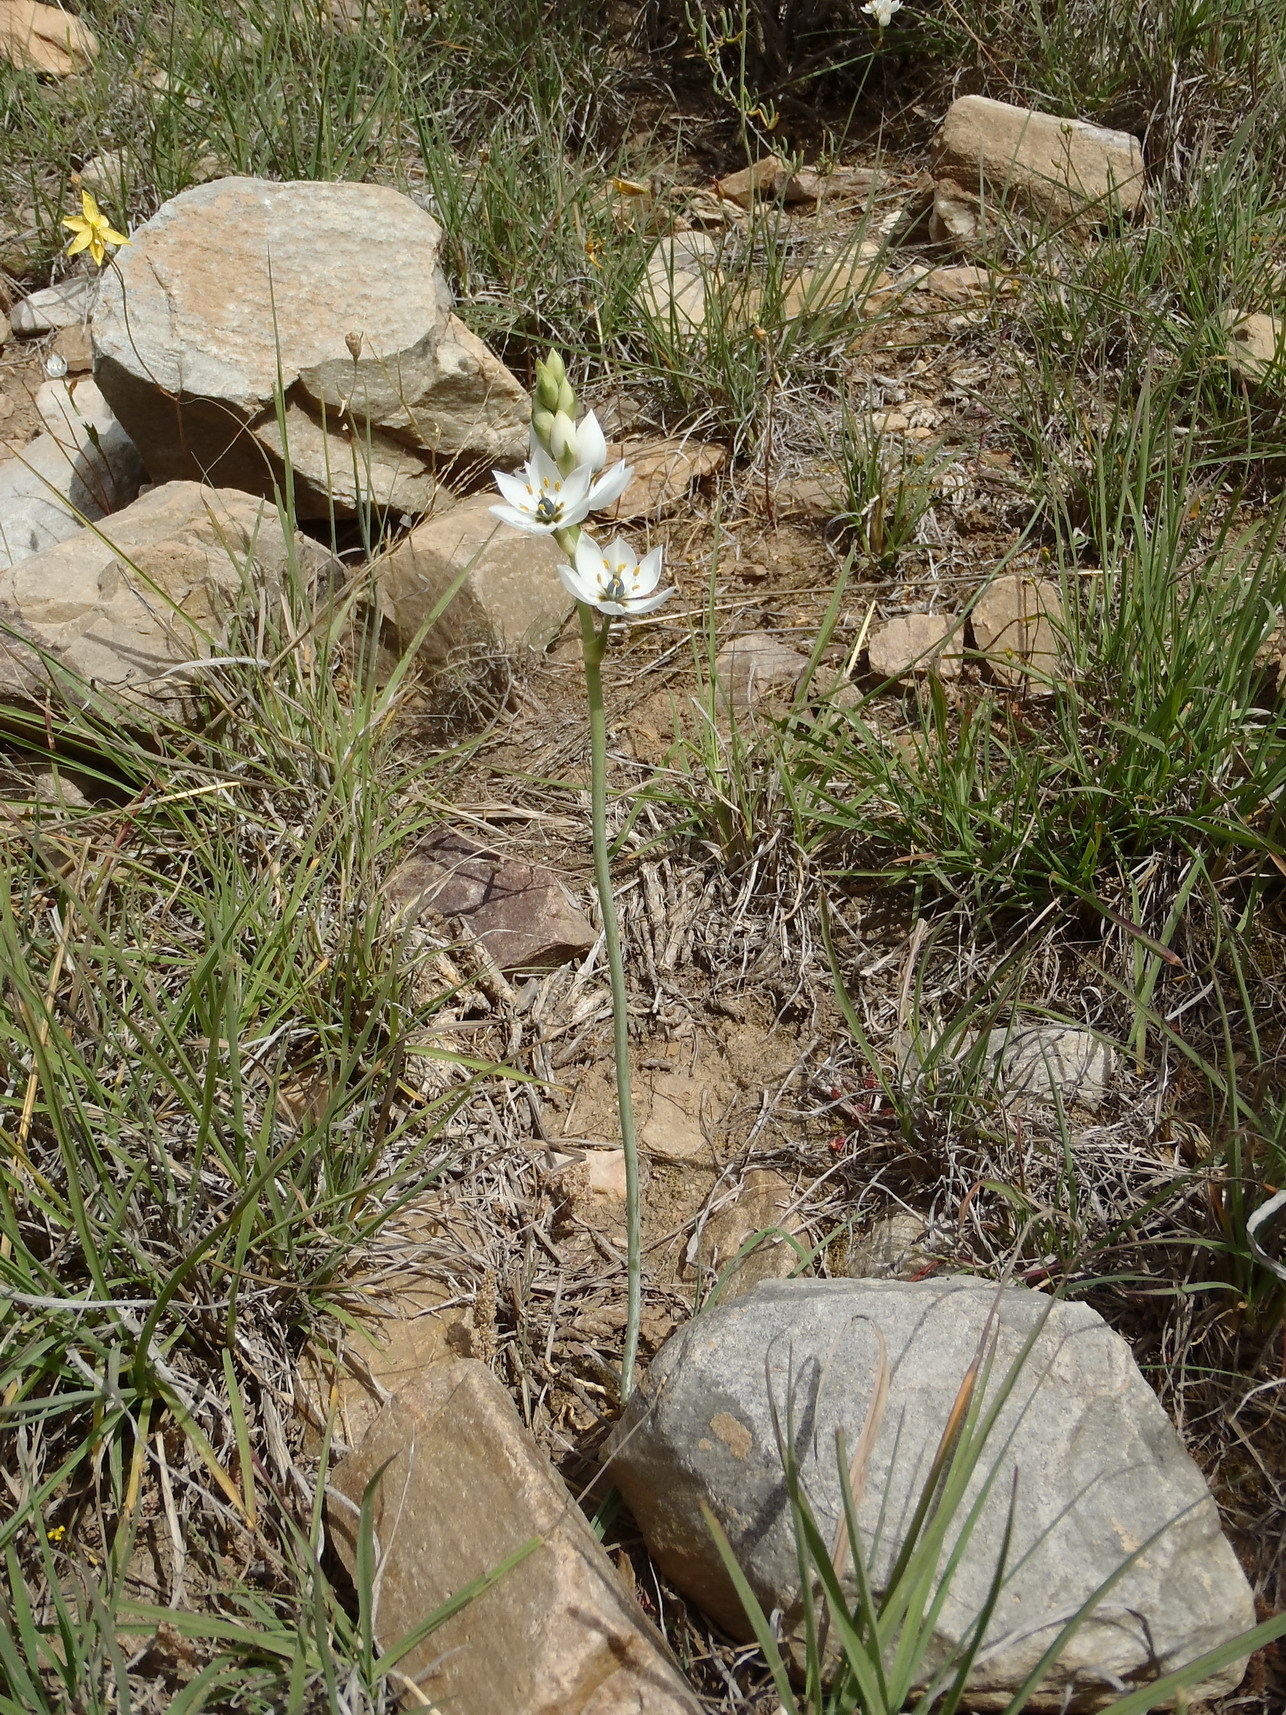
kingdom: Plantae
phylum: Tracheophyta
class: Liliopsida
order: Asparagales
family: Asparagaceae
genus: Ornithogalum
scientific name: Ornithogalum dubium
